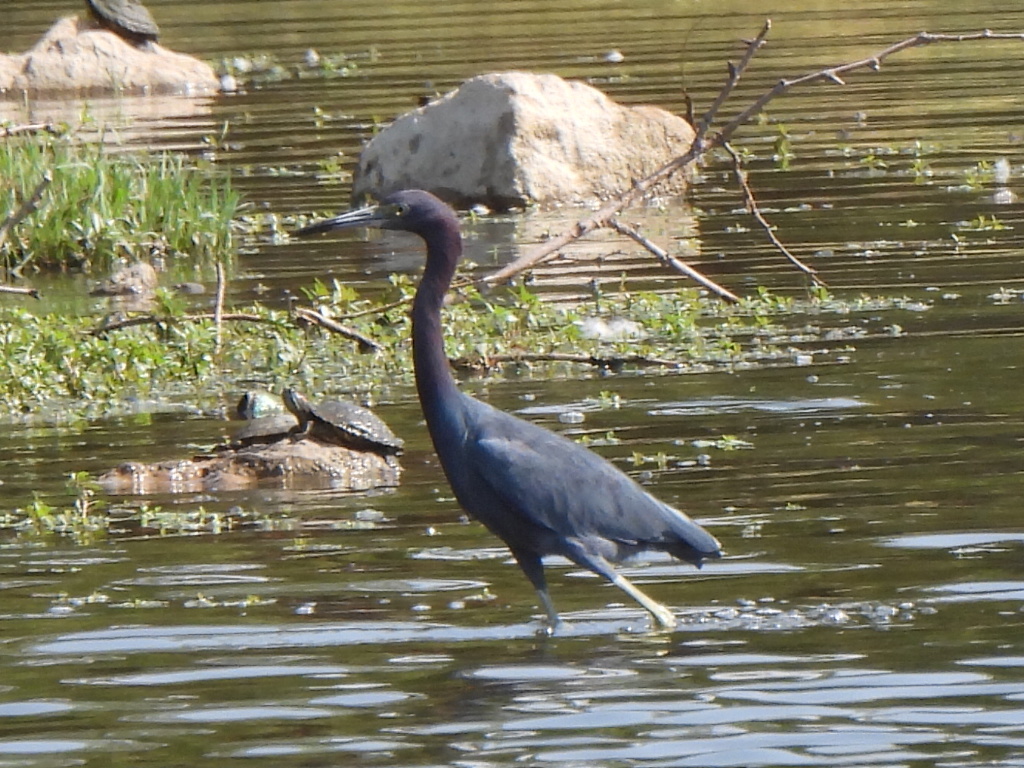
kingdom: Animalia
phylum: Chordata
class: Aves
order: Pelecaniformes
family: Ardeidae
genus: Egretta
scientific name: Egretta caerulea
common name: Little blue heron
